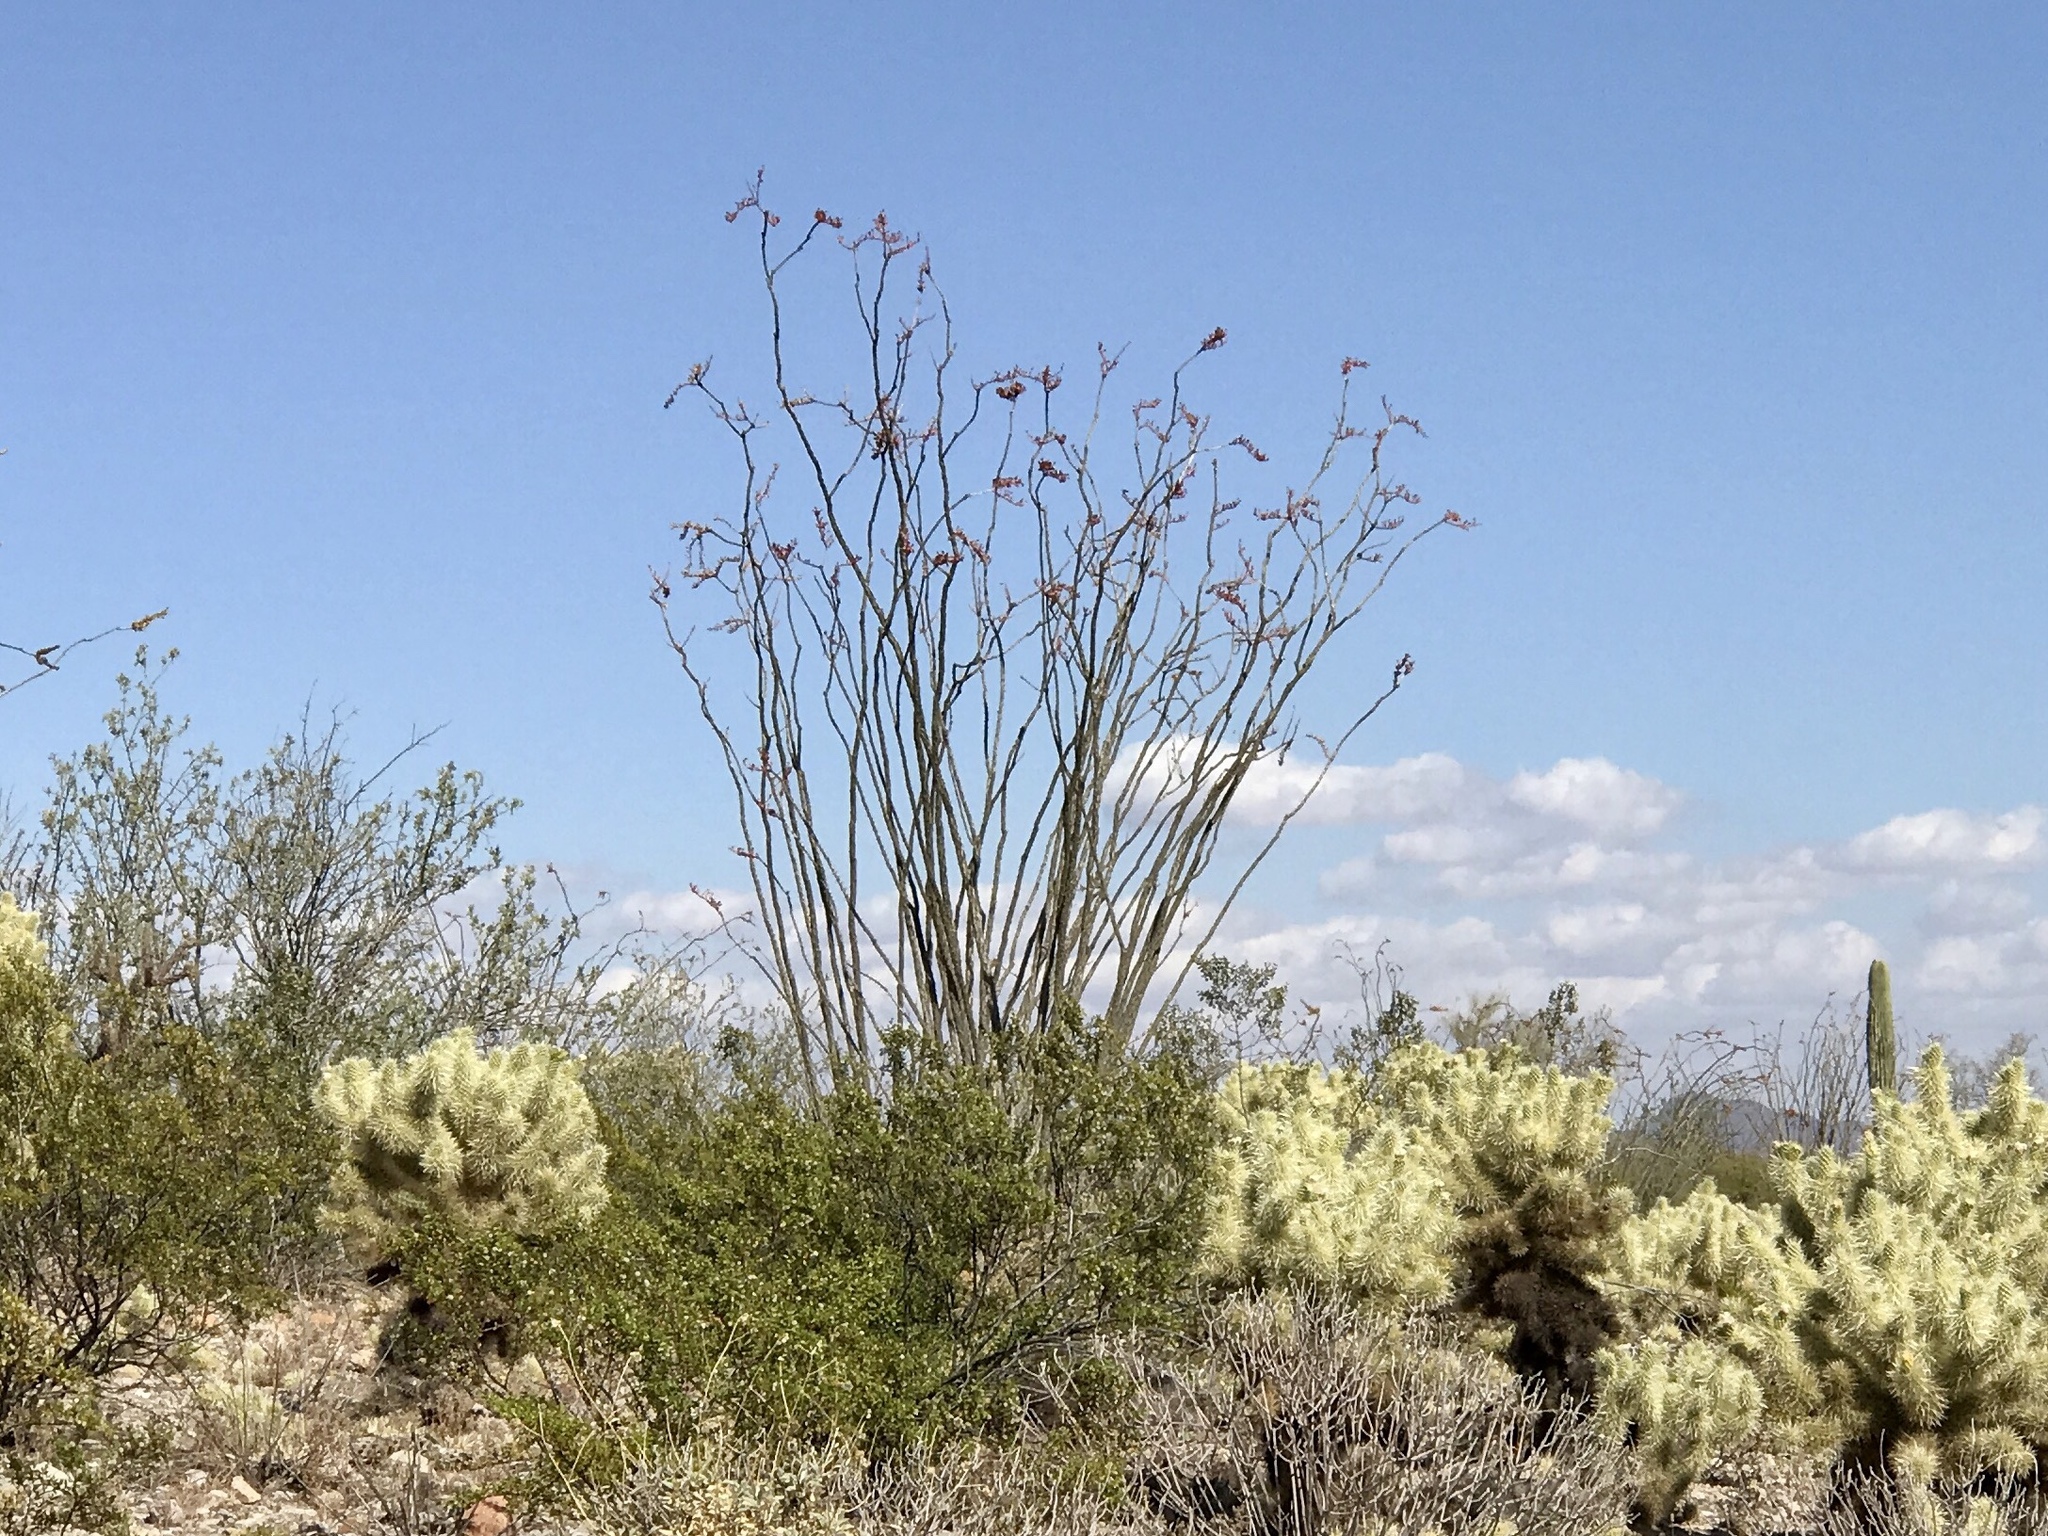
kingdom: Plantae
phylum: Tracheophyta
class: Magnoliopsida
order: Ericales
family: Fouquieriaceae
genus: Fouquieria
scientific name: Fouquieria splendens
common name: Vine-cactus
